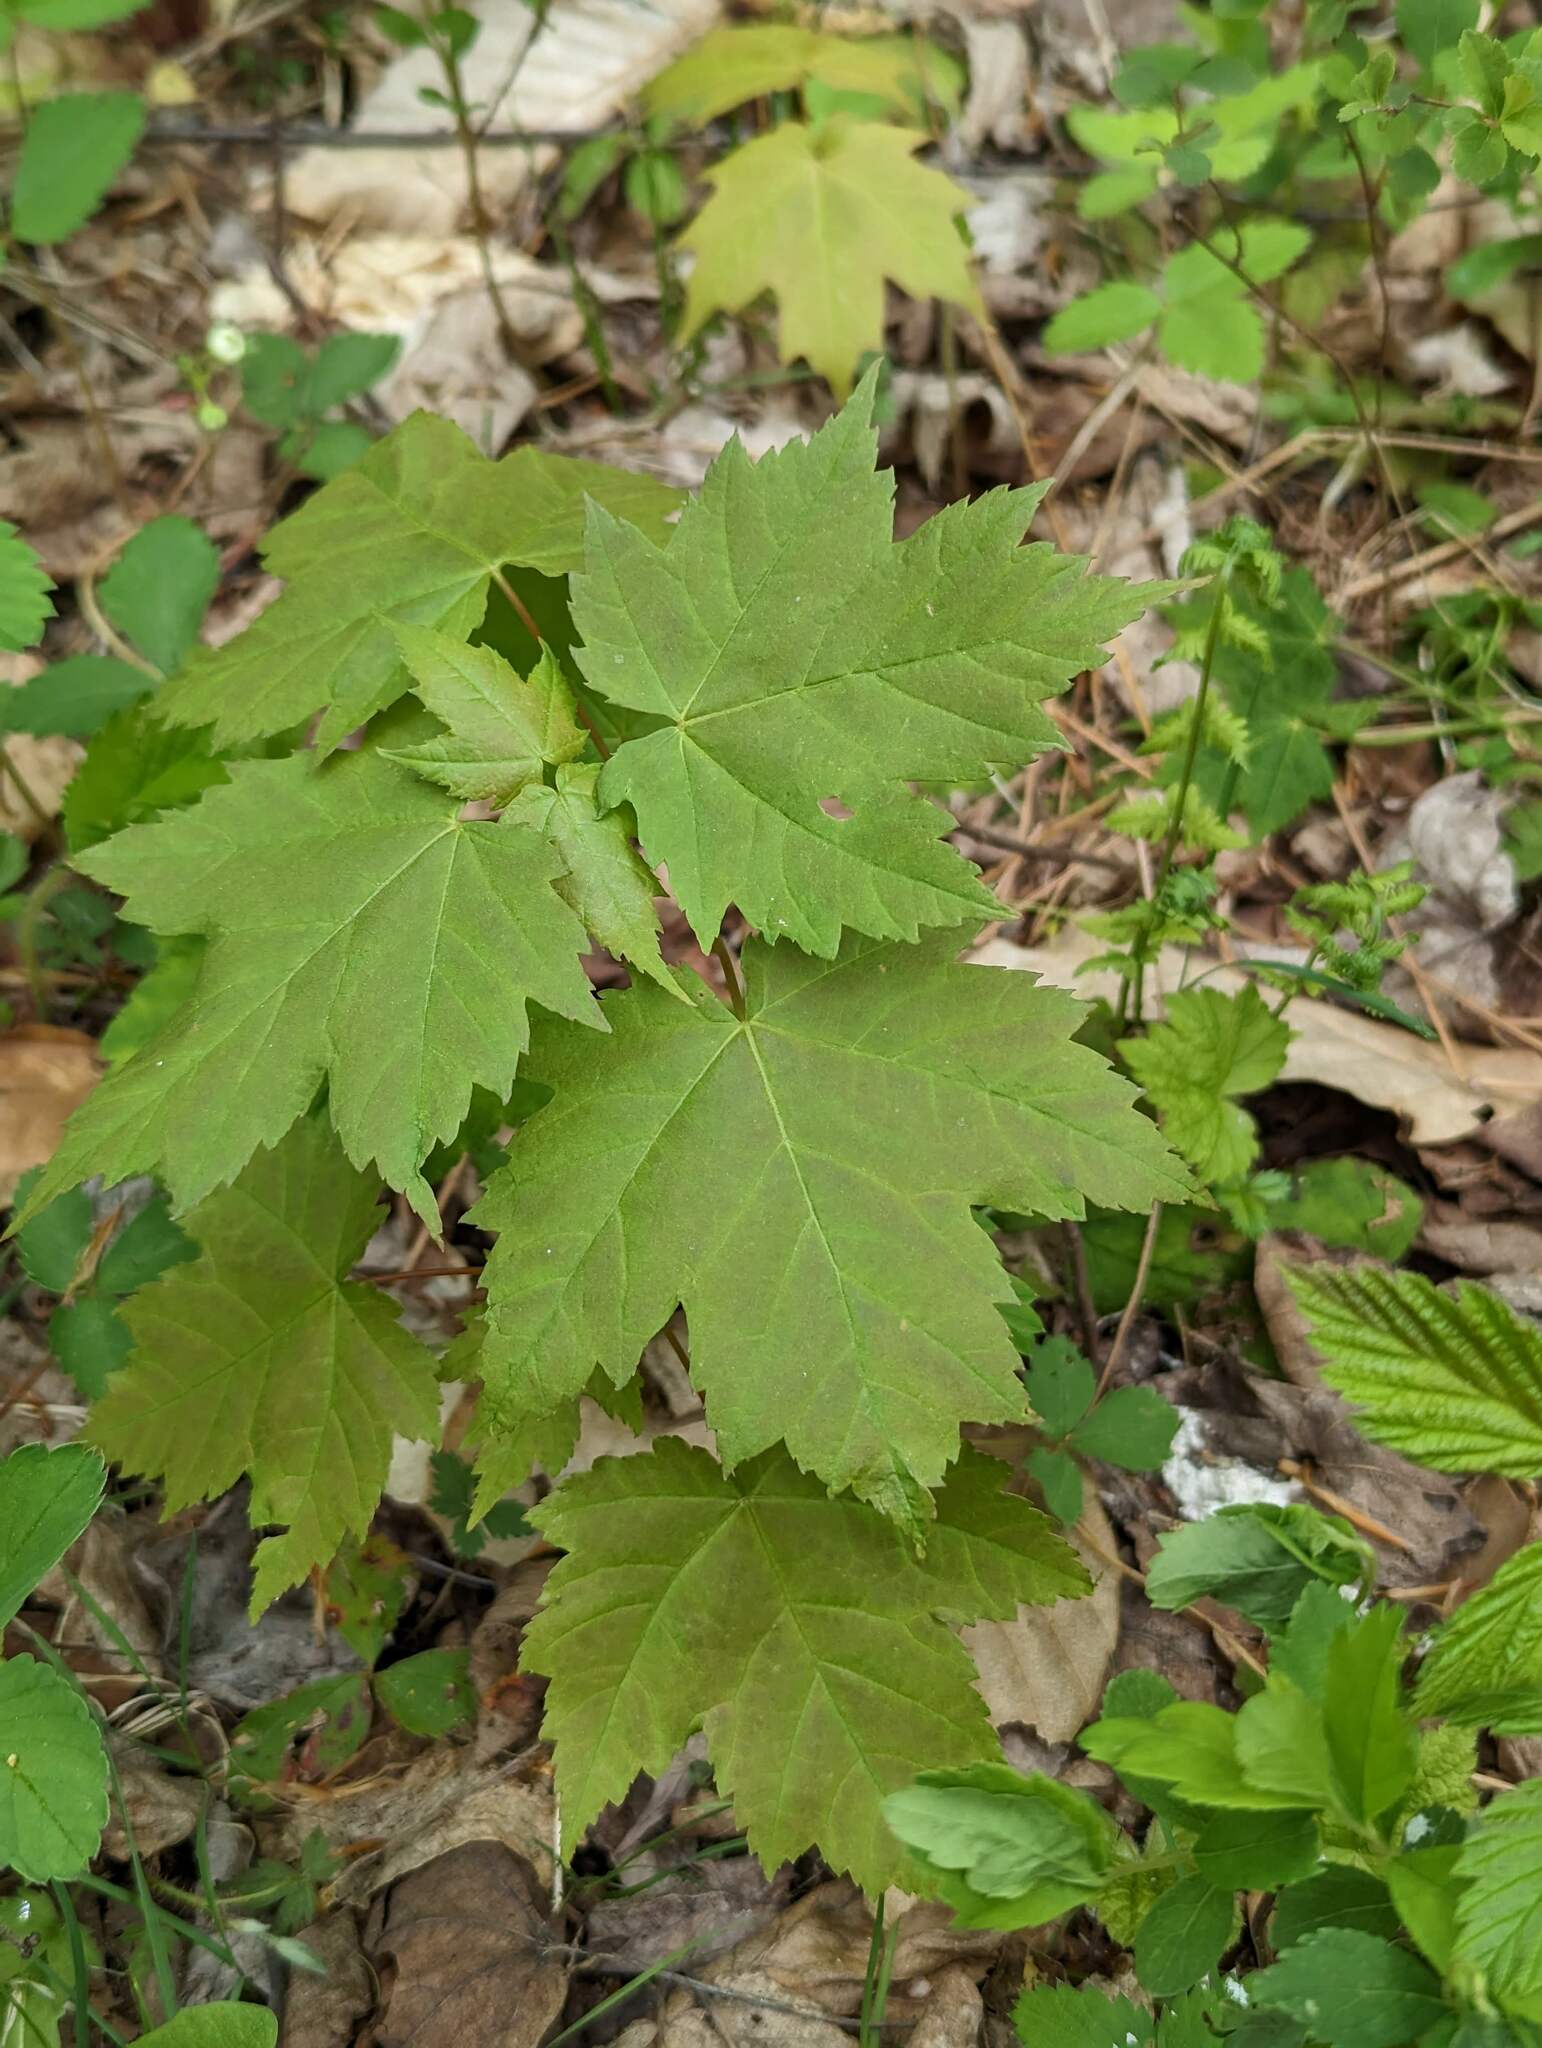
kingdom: Plantae
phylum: Tracheophyta
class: Magnoliopsida
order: Sapindales
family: Sapindaceae
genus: Acer
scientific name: Acer rubrum
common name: Red maple
